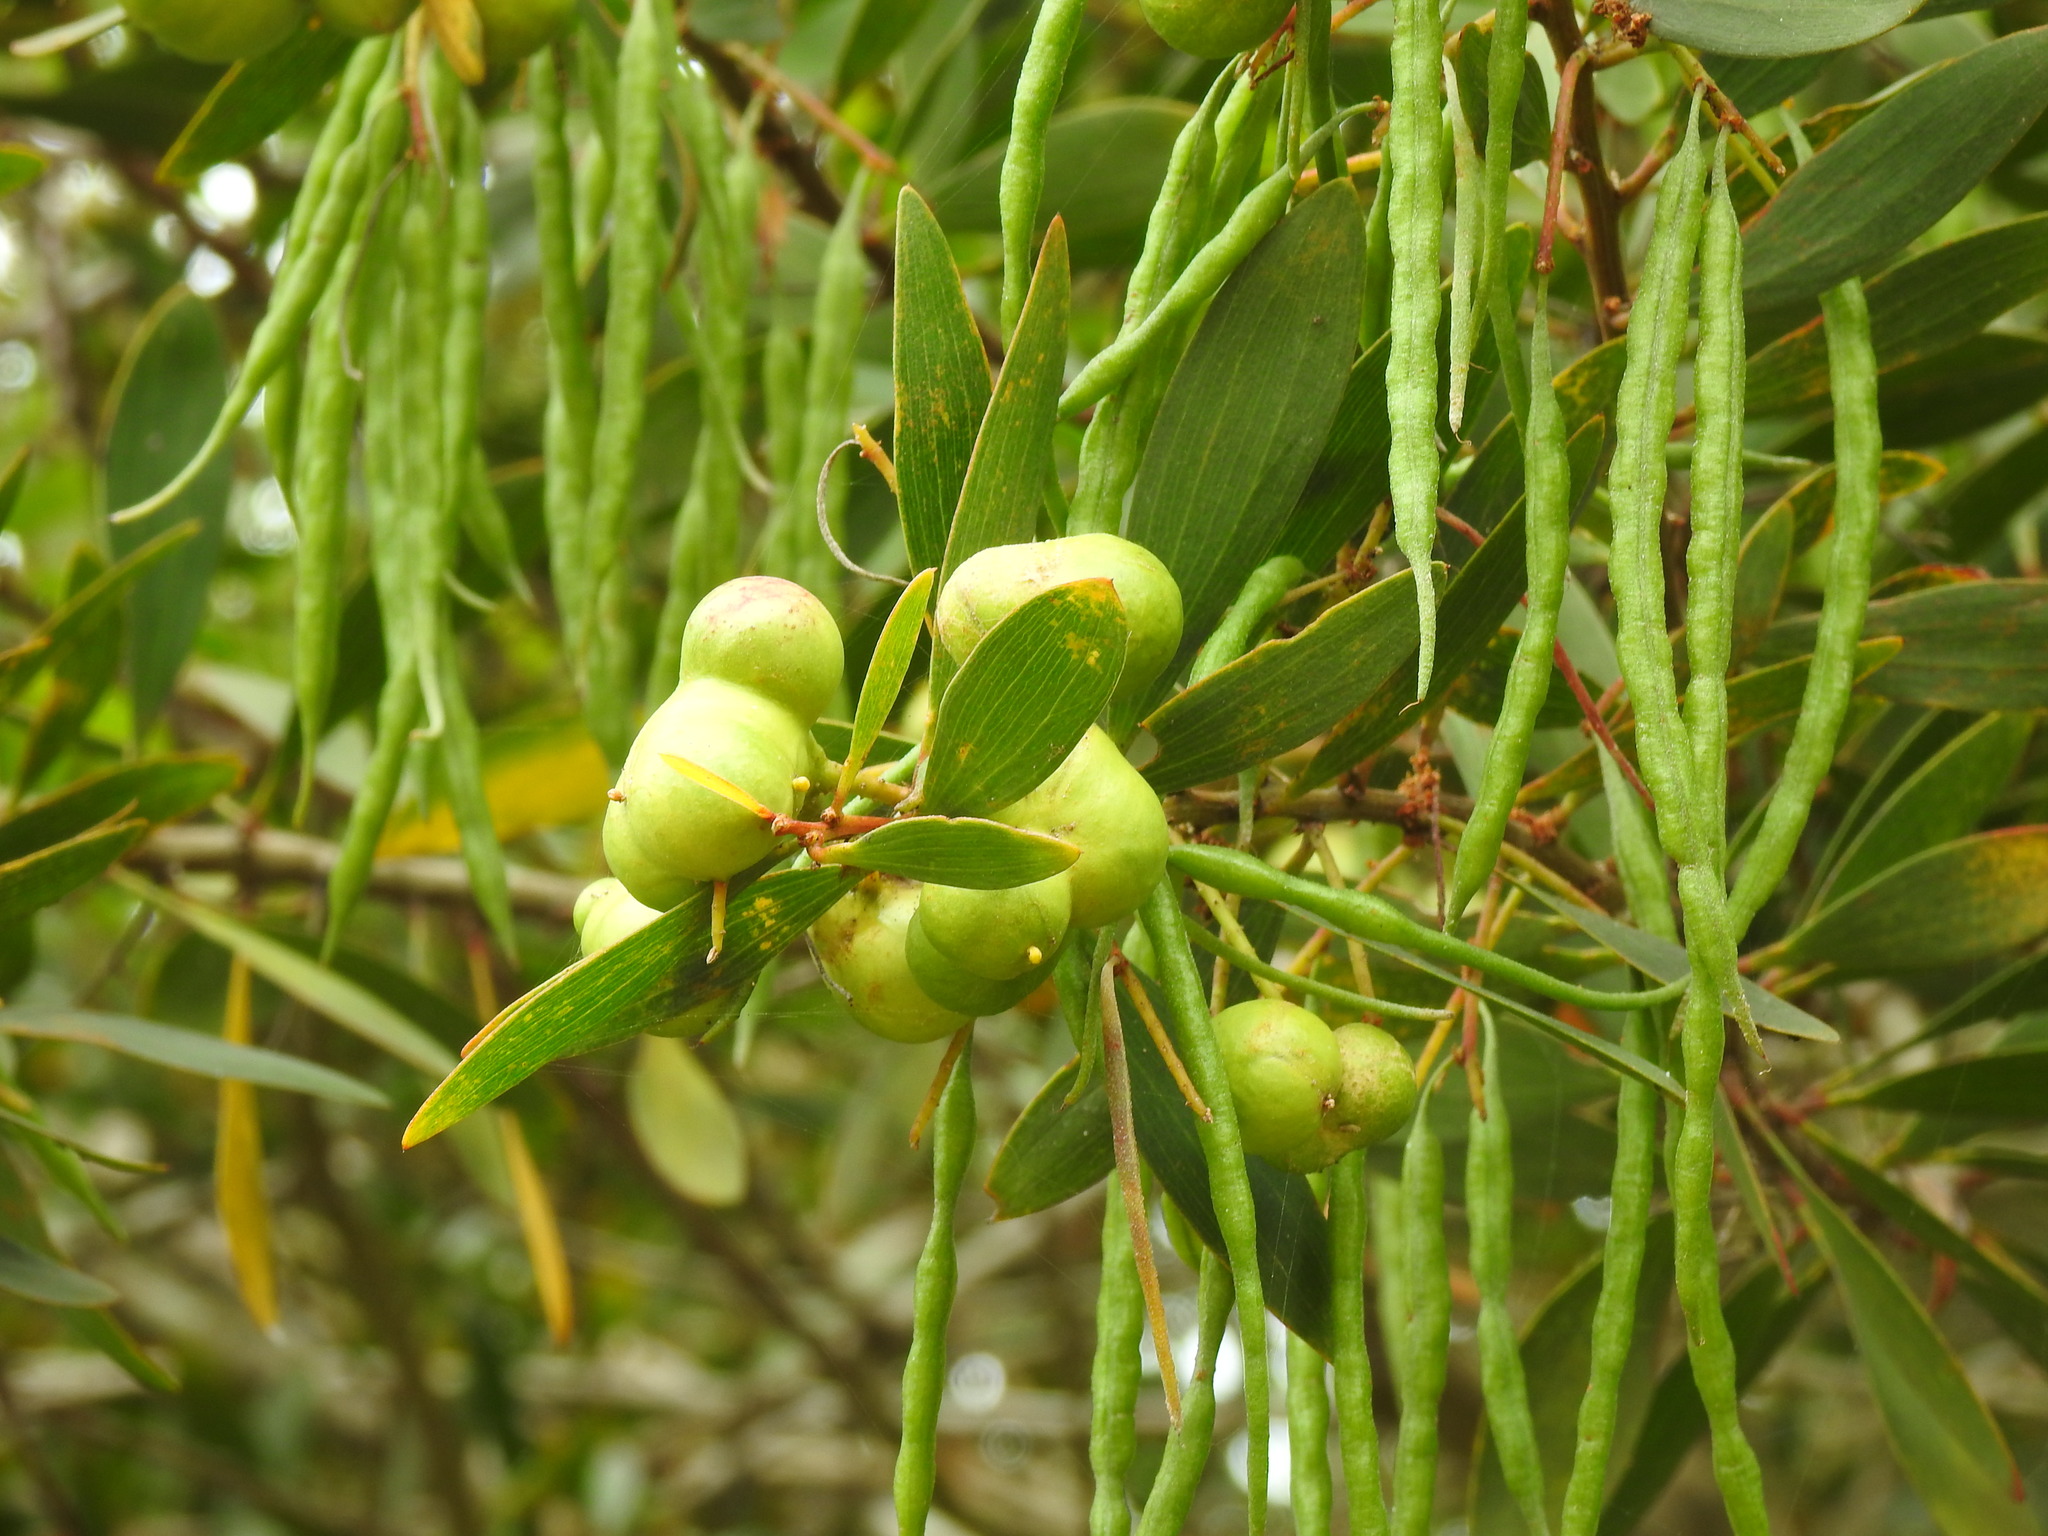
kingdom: Plantae
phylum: Tracheophyta
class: Magnoliopsida
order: Fabales
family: Fabaceae
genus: Acacia
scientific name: Acacia longifolia
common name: Sydney golden wattle
